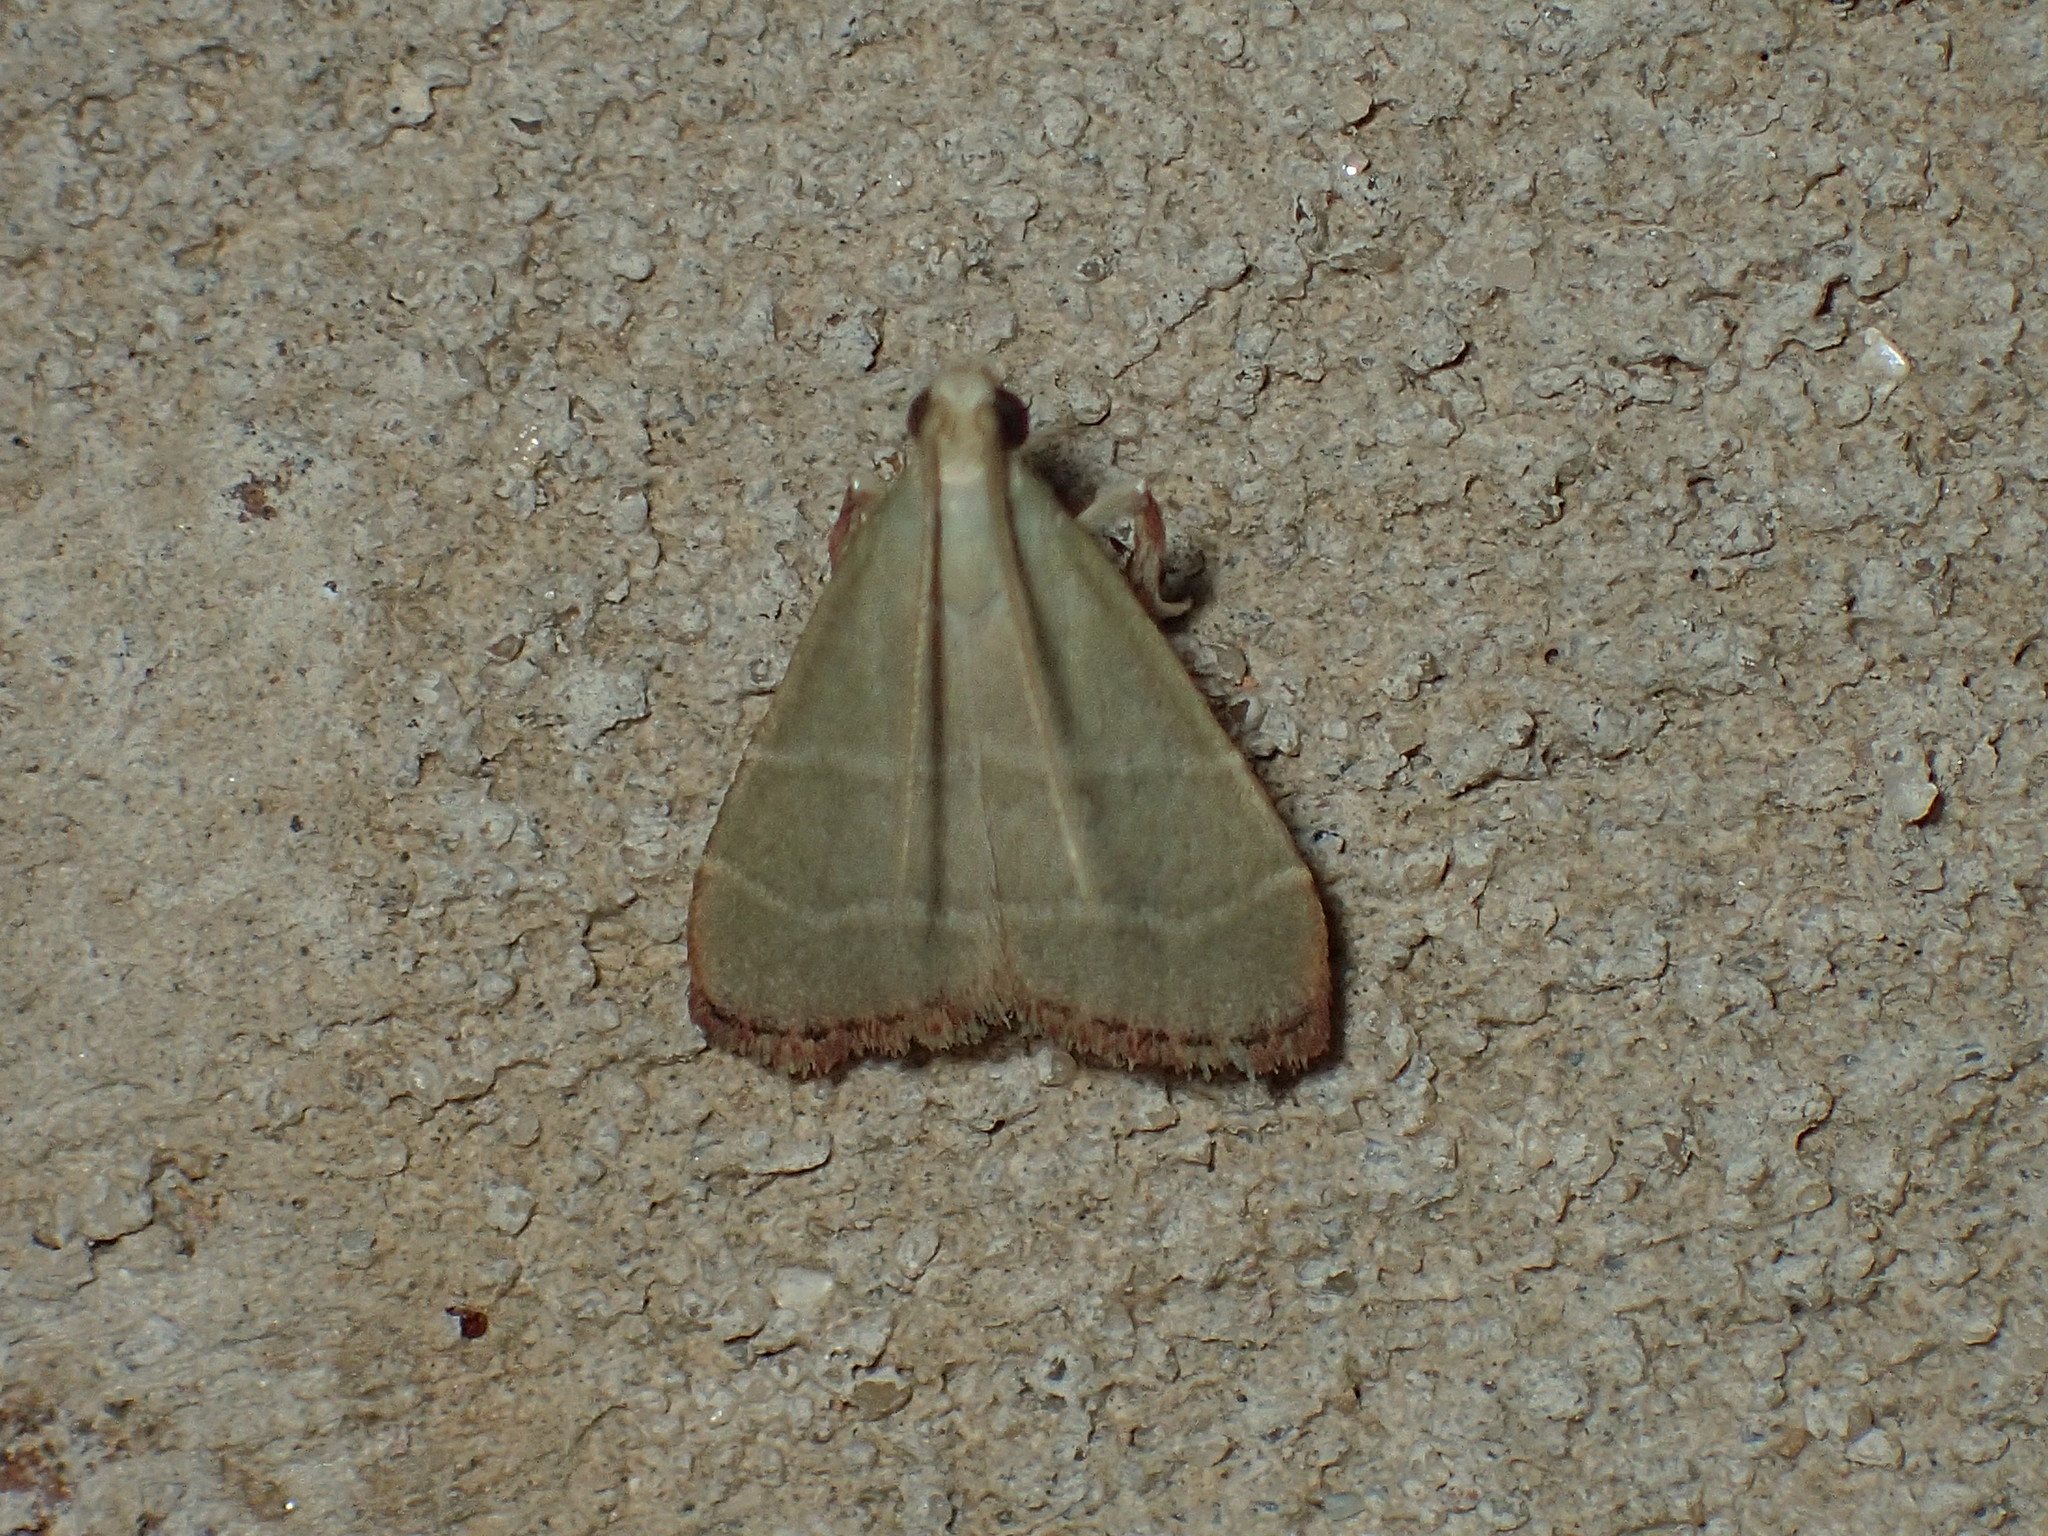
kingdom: Animalia
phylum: Arthropoda
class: Insecta
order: Lepidoptera
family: Pyralidae
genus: Arta
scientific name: Arta olivalis
